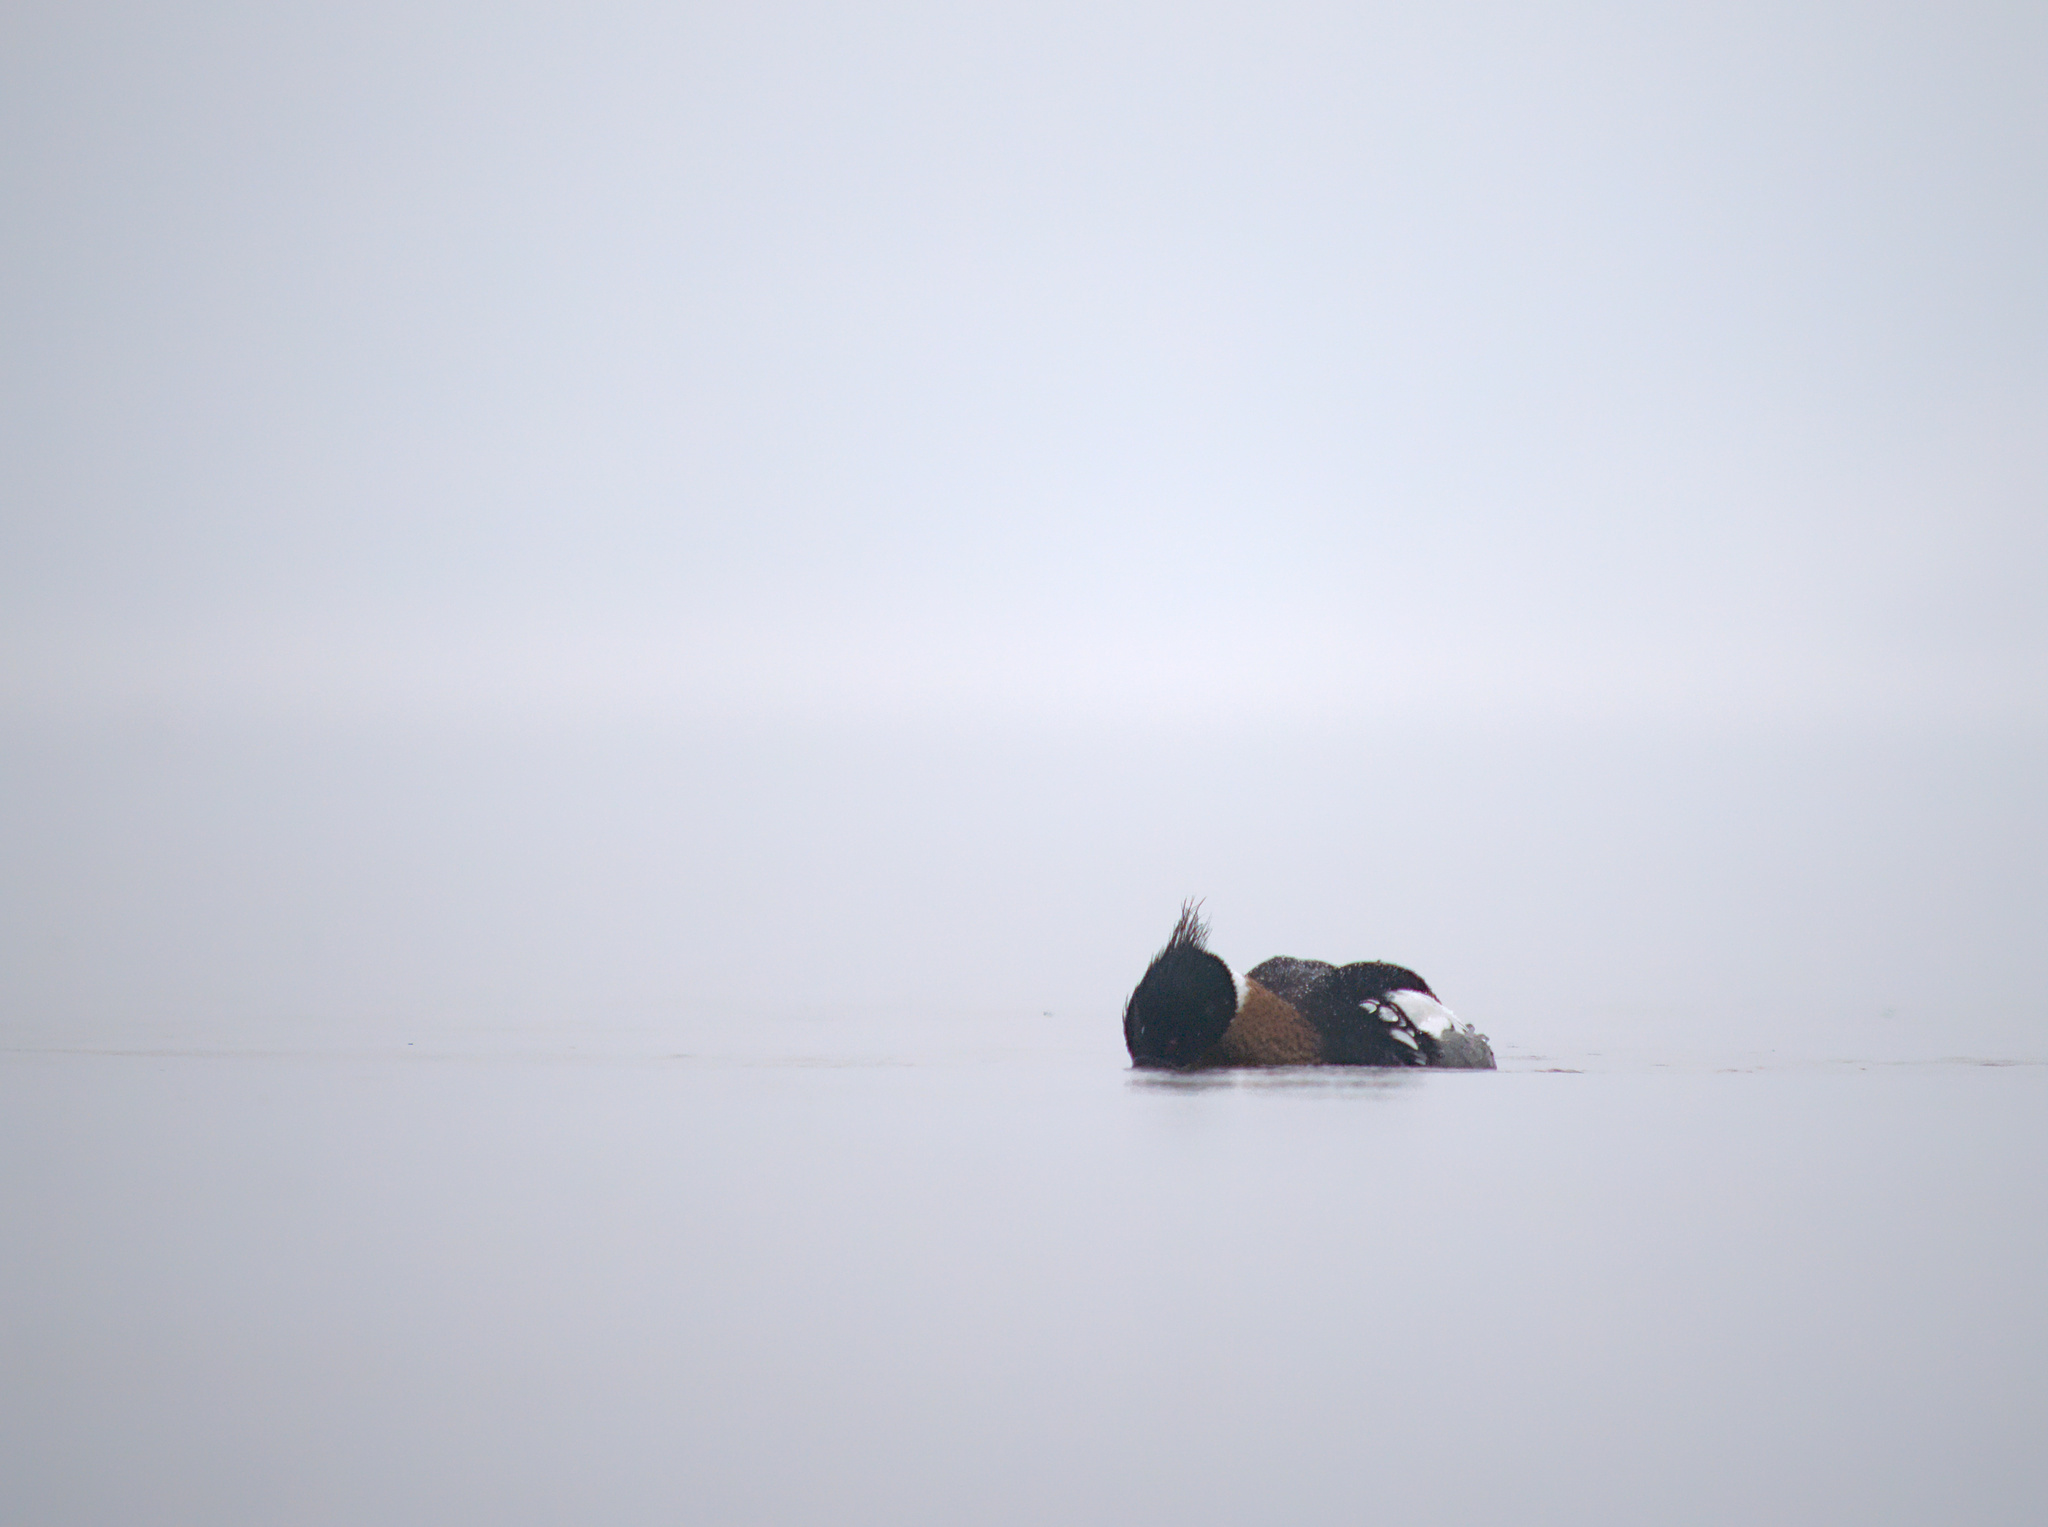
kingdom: Animalia
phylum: Chordata
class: Aves
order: Anseriformes
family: Anatidae
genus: Mergus
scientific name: Mergus serrator
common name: Red-breasted merganser
